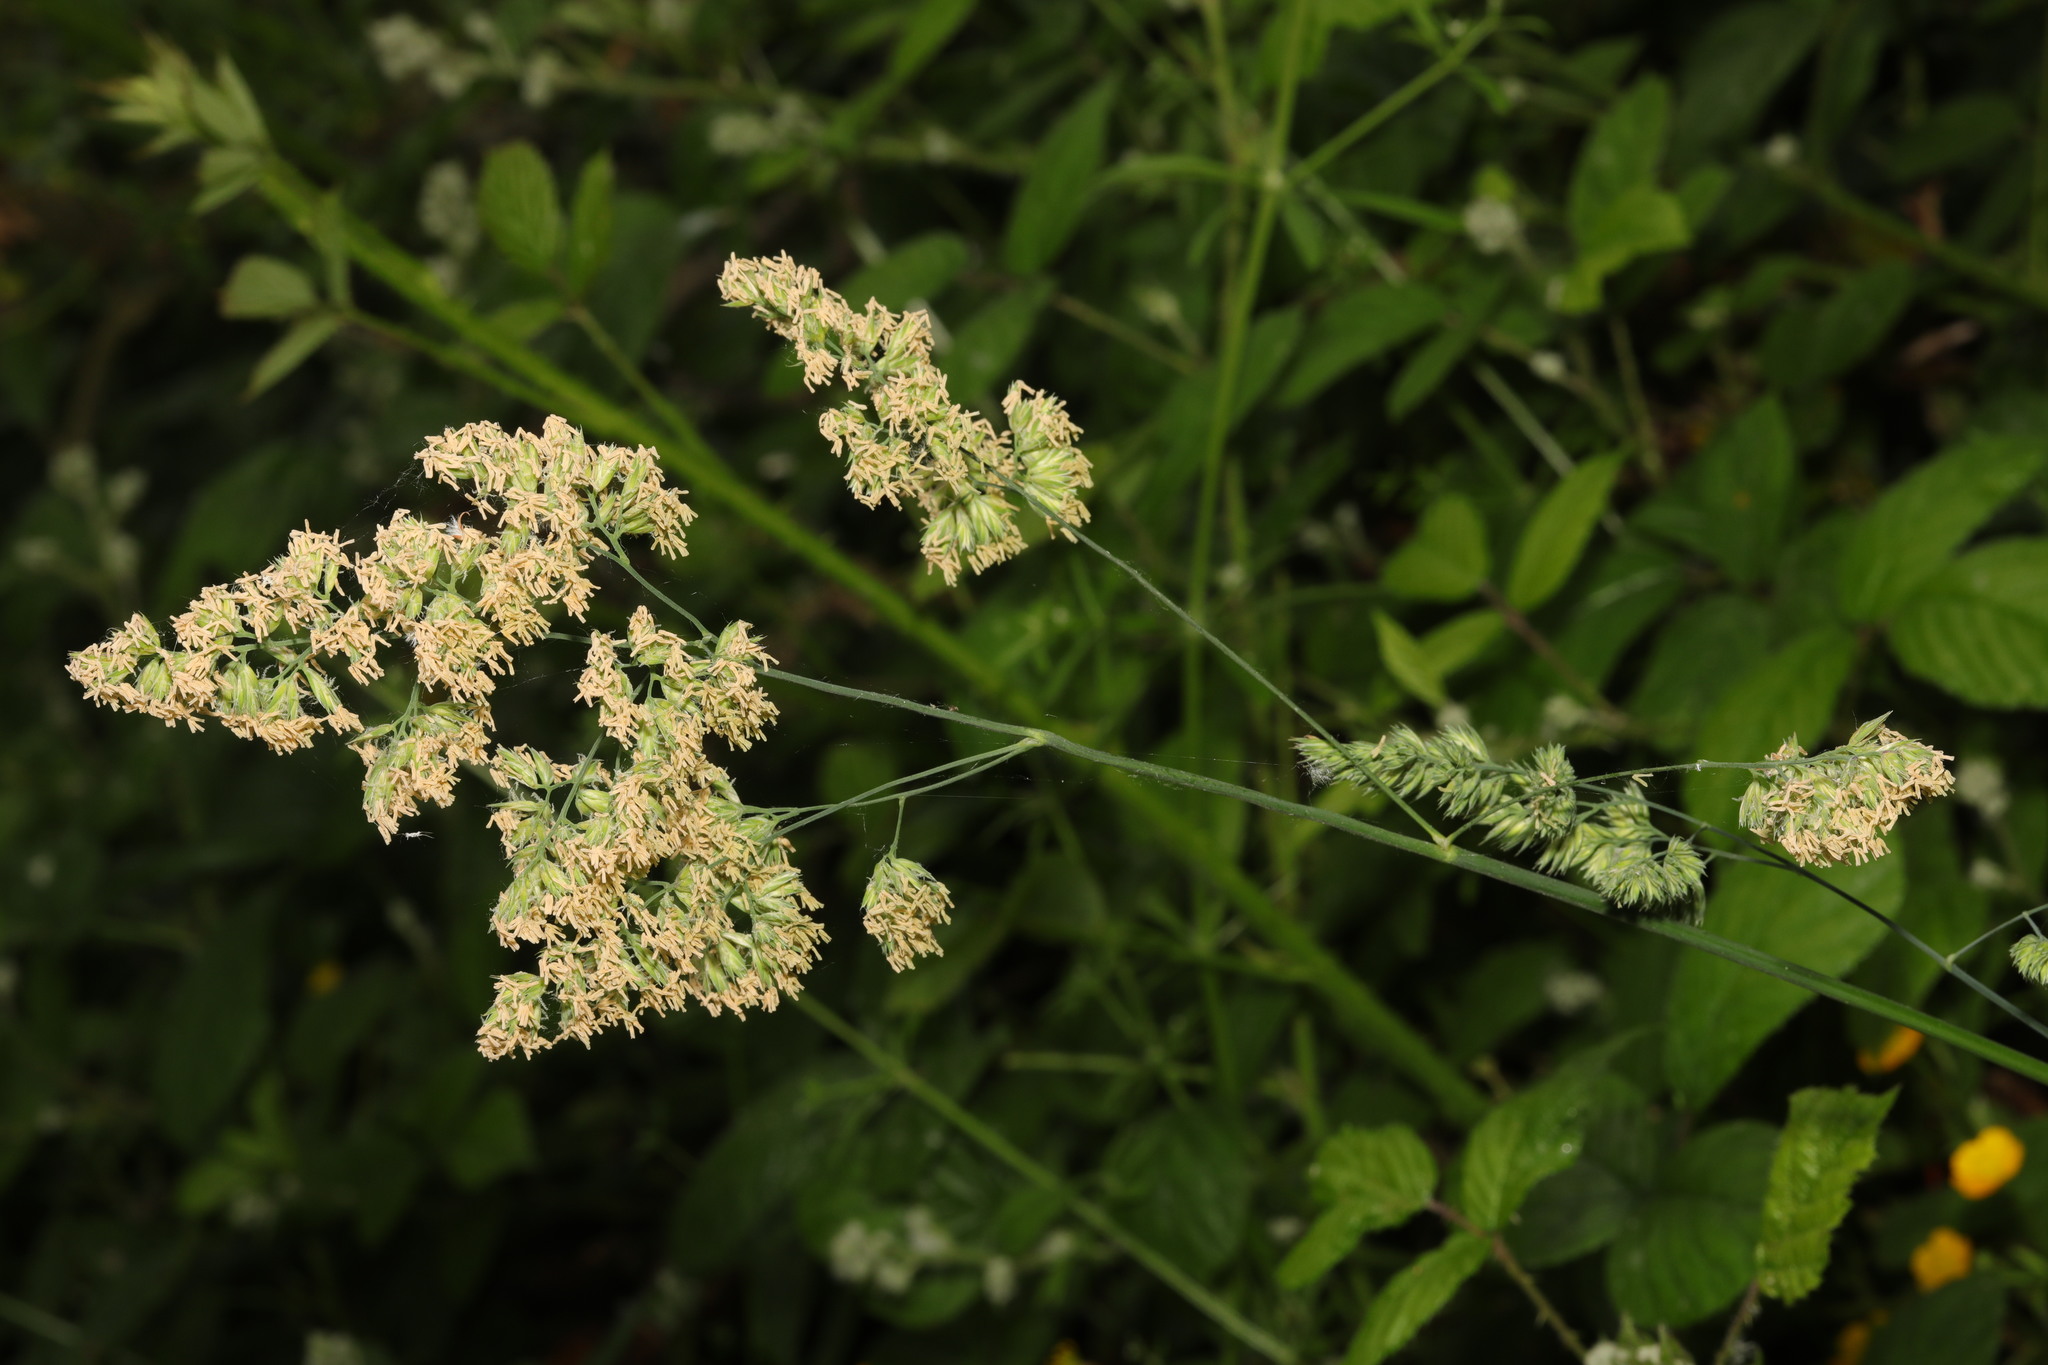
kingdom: Plantae
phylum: Tracheophyta
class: Liliopsida
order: Poales
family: Poaceae
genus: Dactylis
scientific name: Dactylis glomerata
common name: Orchardgrass
